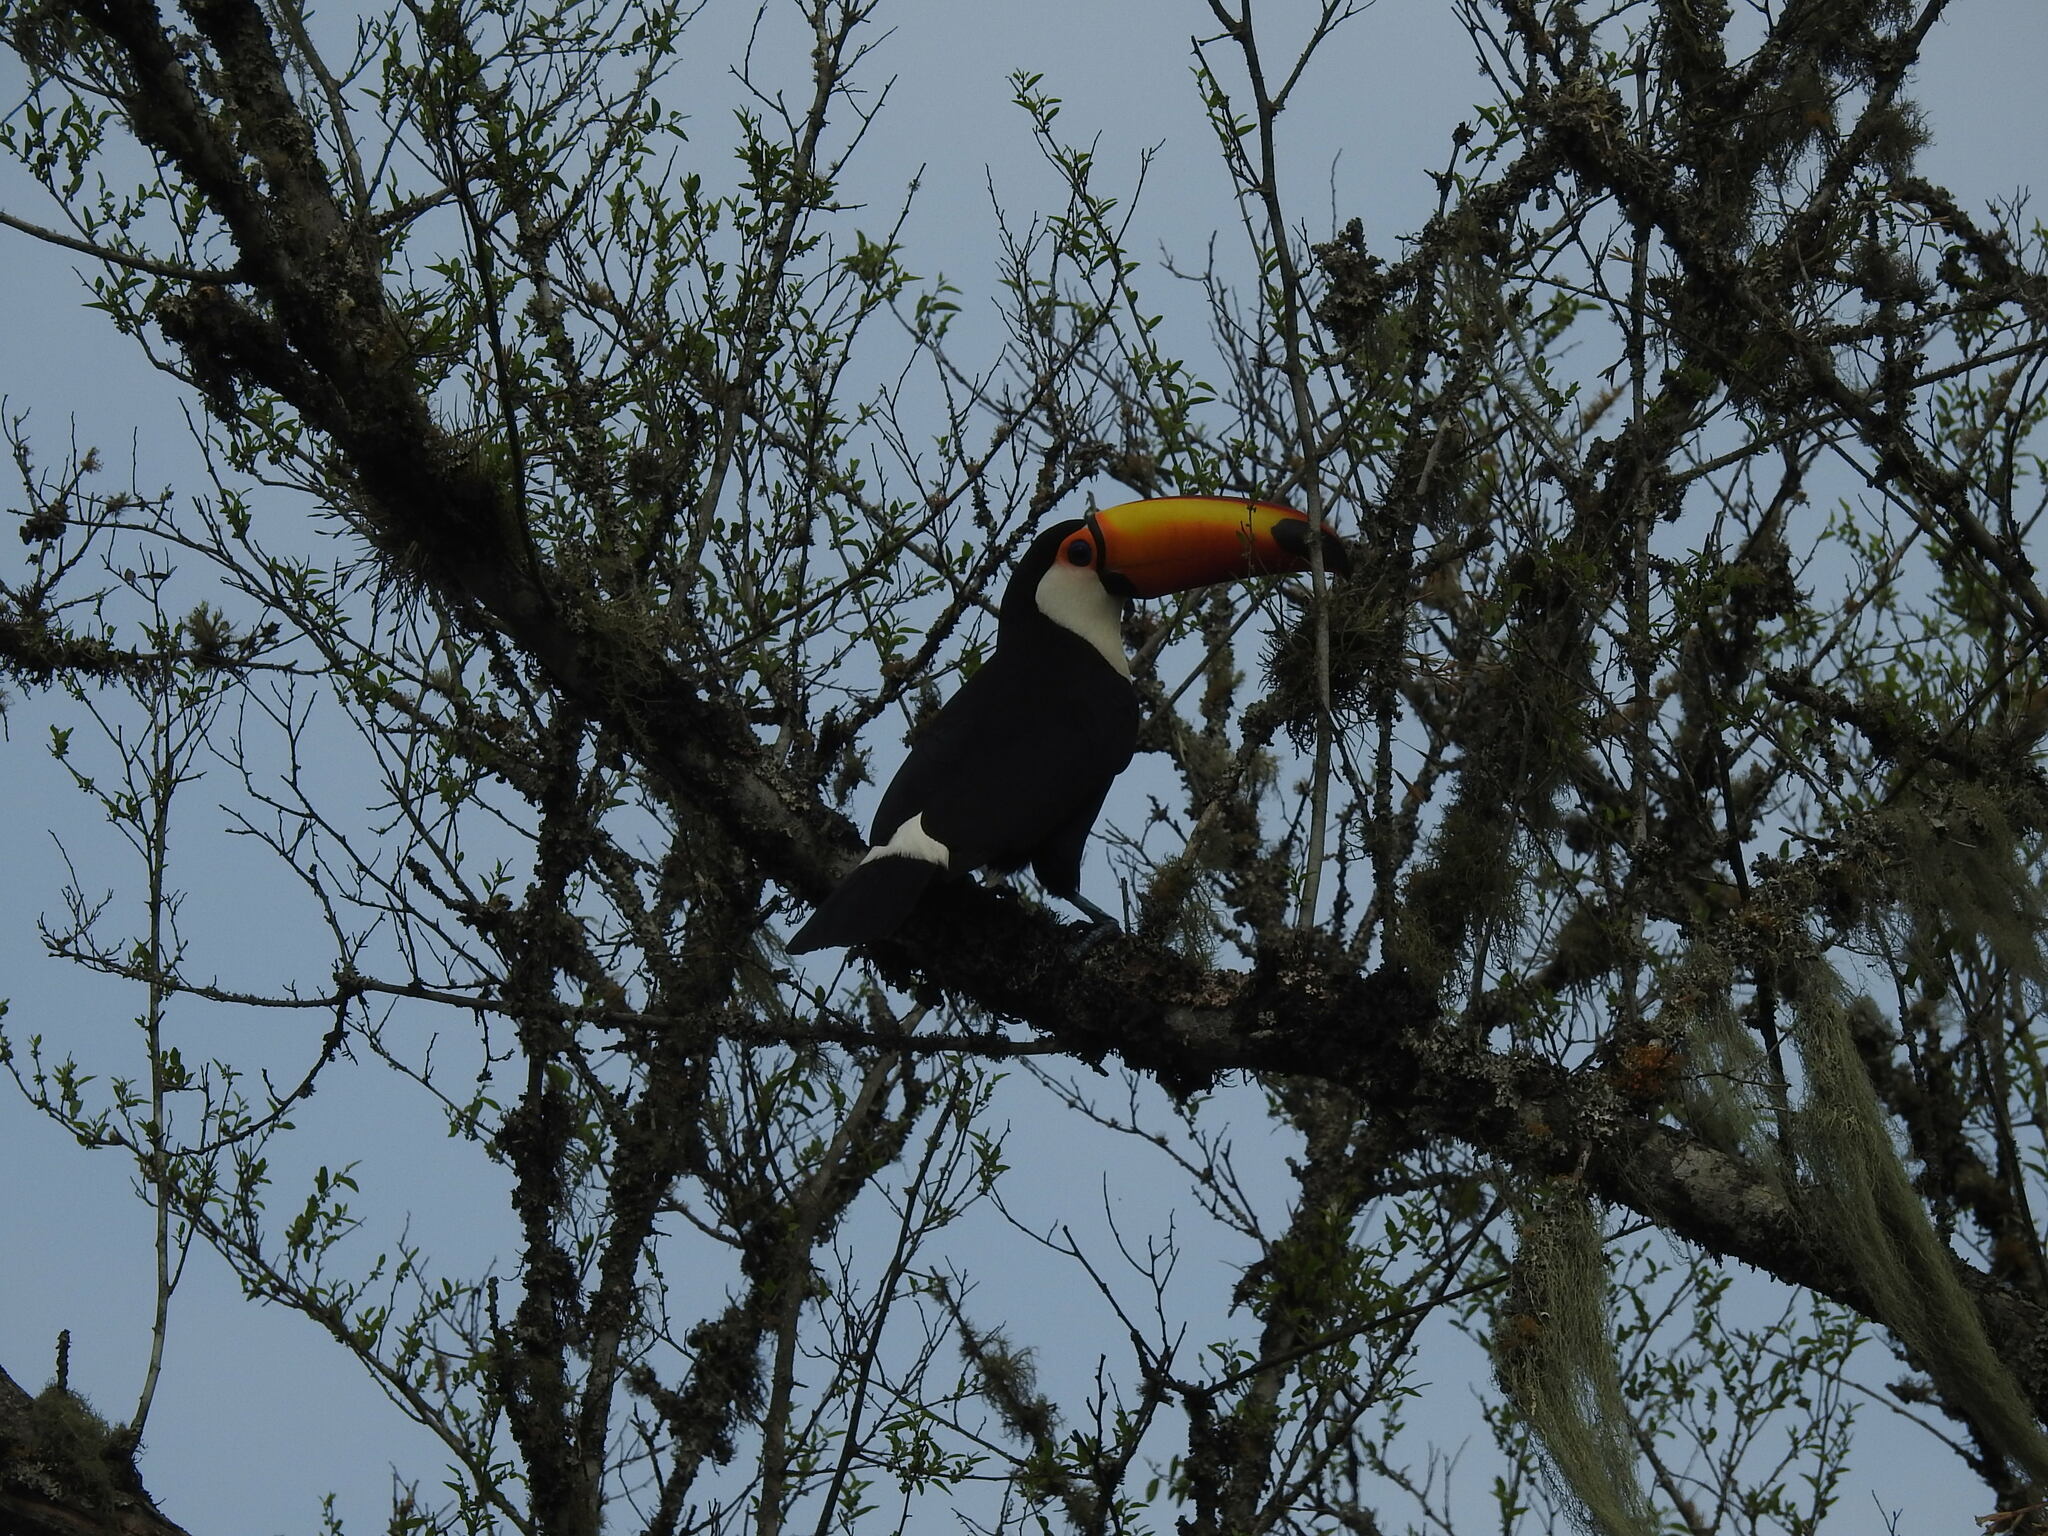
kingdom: Animalia
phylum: Chordata
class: Aves
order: Piciformes
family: Ramphastidae
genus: Ramphastos
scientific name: Ramphastos toco
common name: Toco toucan
